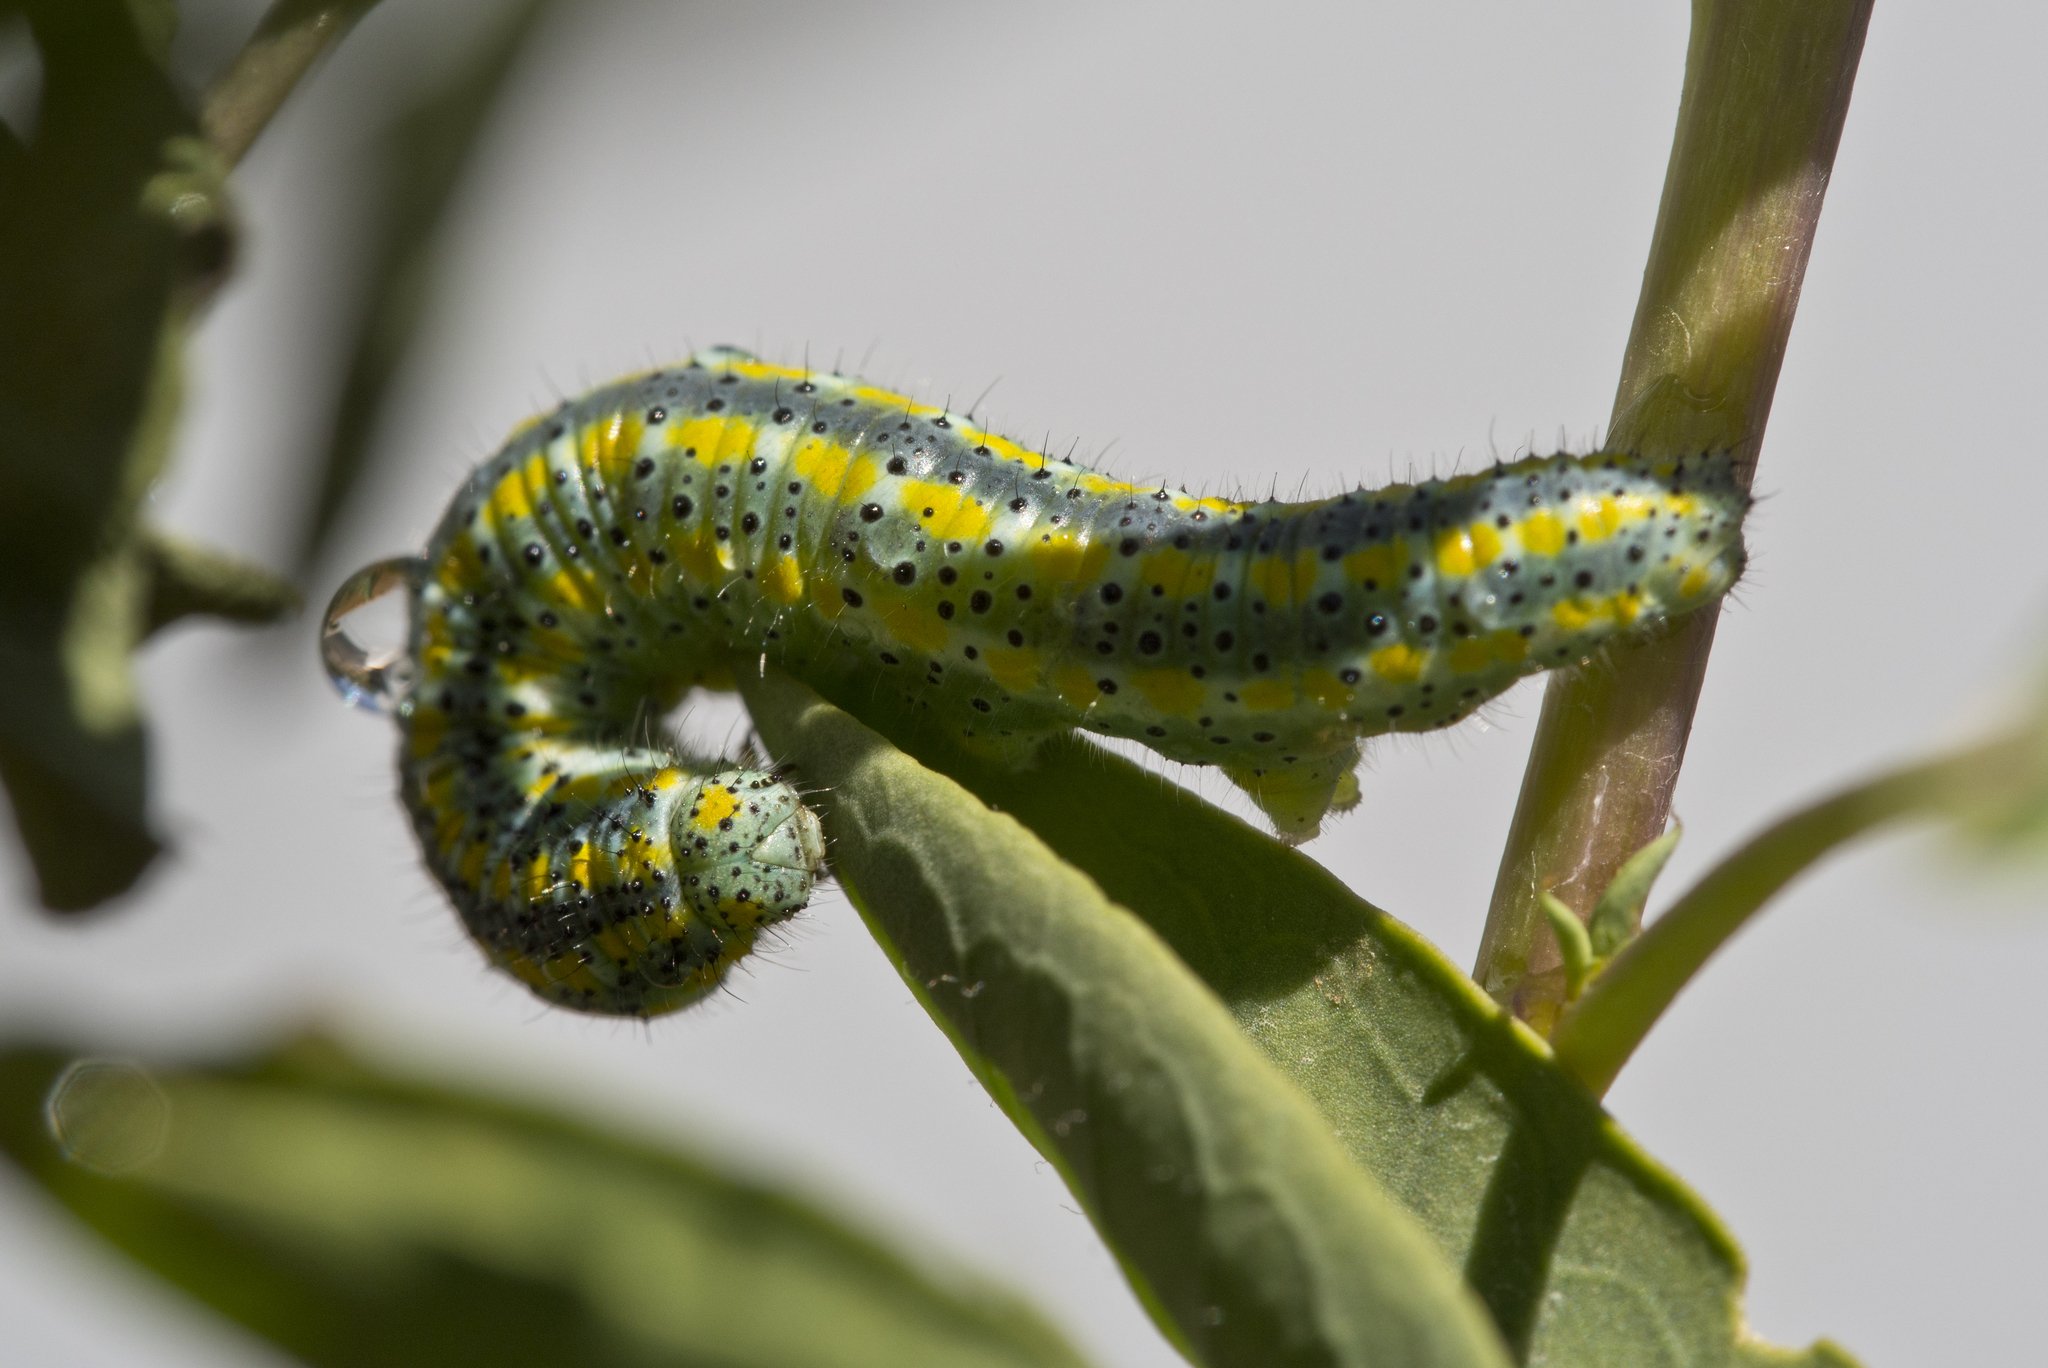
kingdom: Animalia
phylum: Arthropoda
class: Insecta
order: Lepidoptera
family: Pieridae
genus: Pontia
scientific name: Pontia protodice
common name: Checkered white
